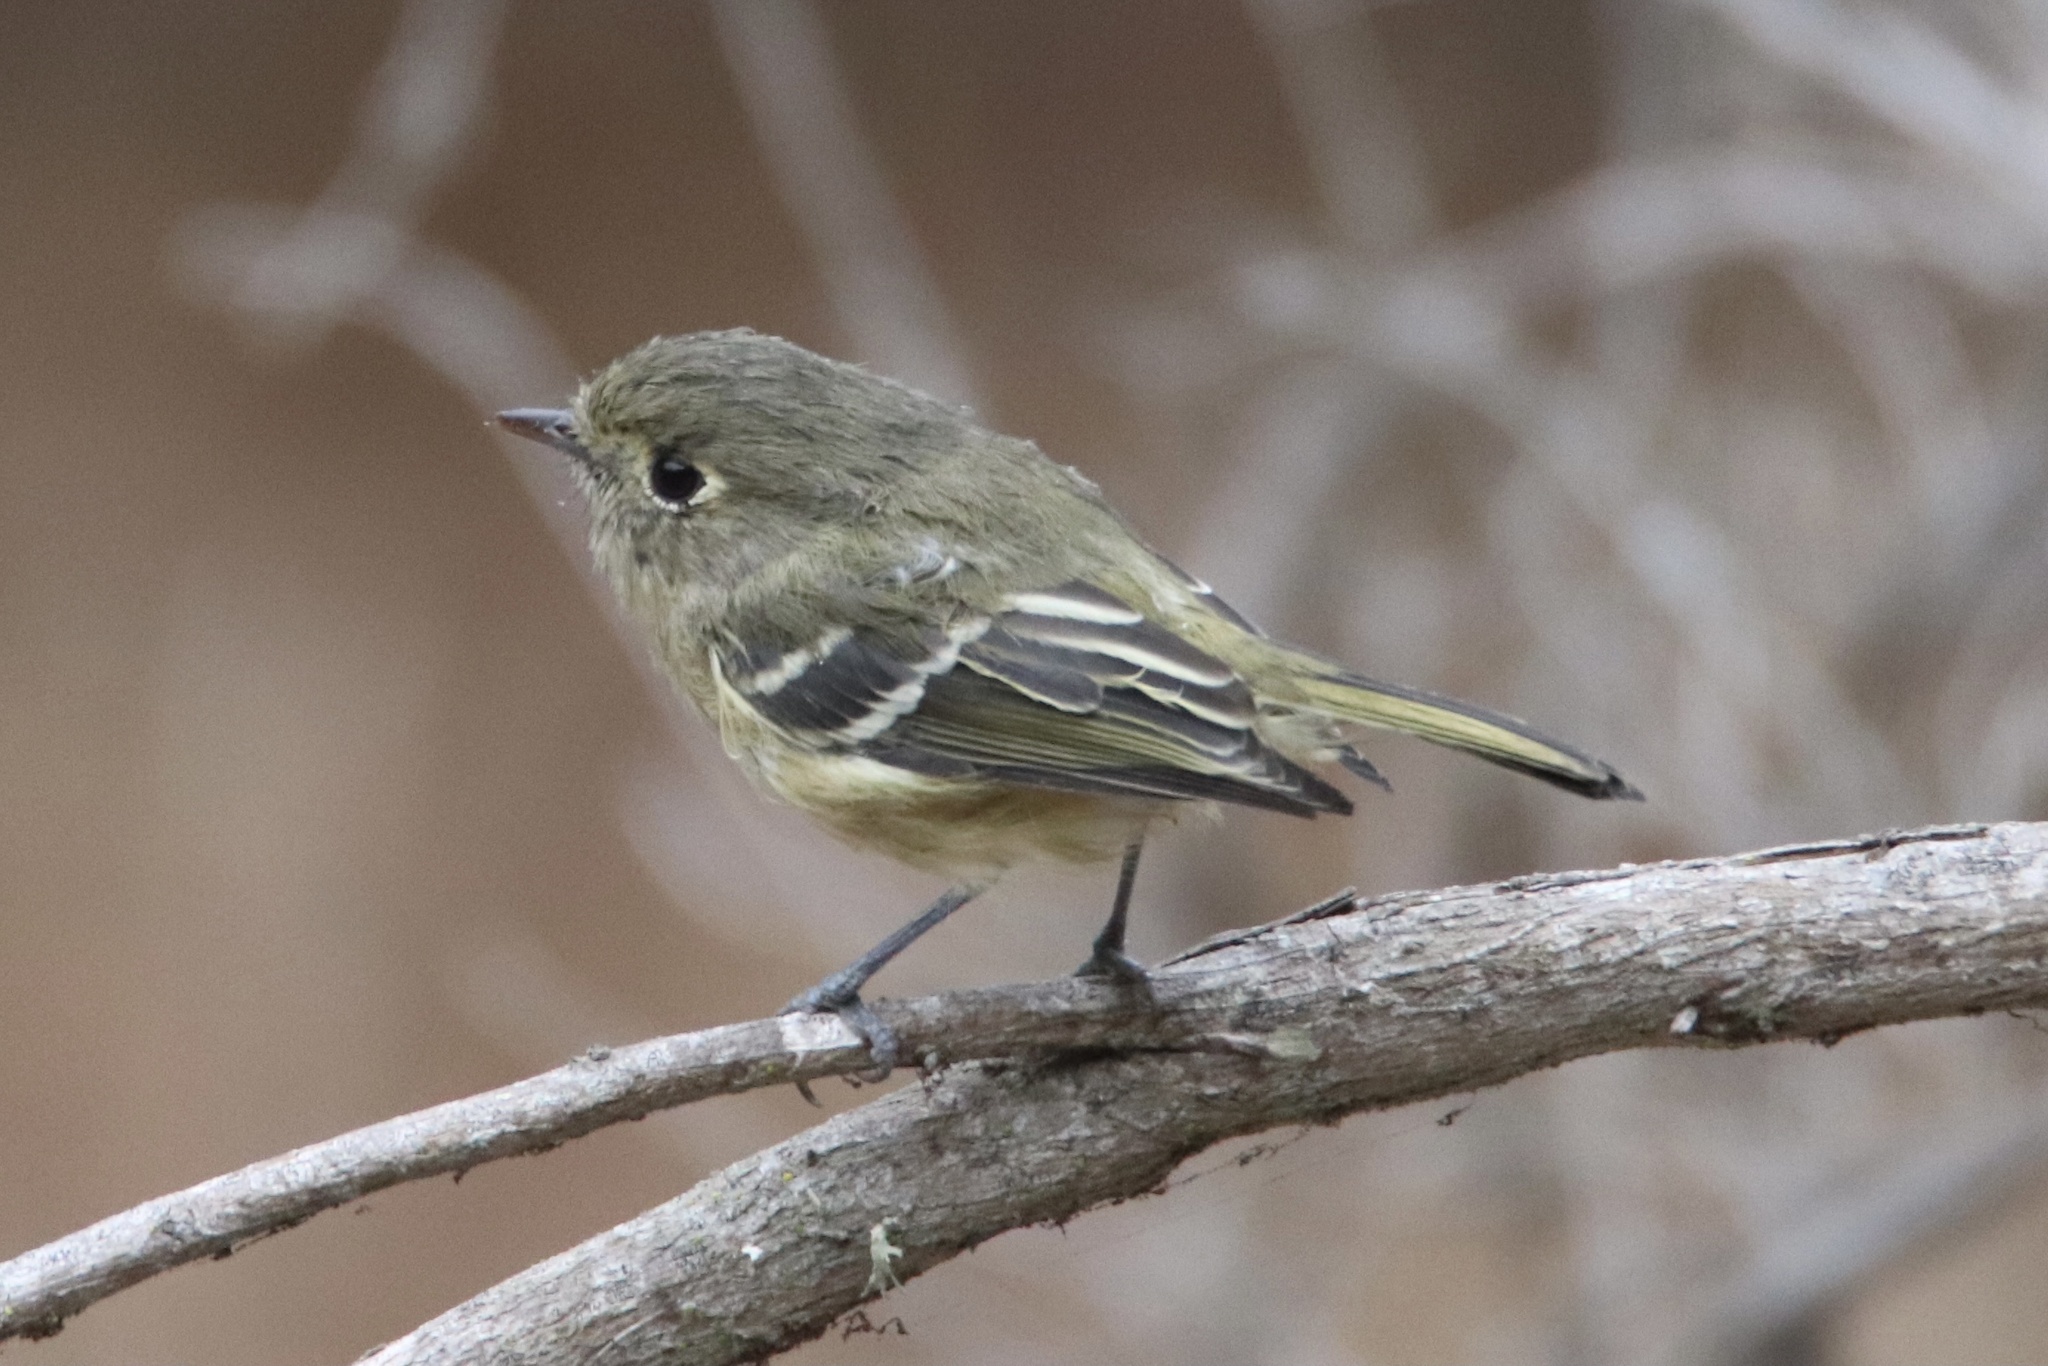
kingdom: Animalia
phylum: Chordata
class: Aves
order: Passeriformes
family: Vireonidae
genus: Vireo
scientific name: Vireo huttoni
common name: Hutton's vireo
